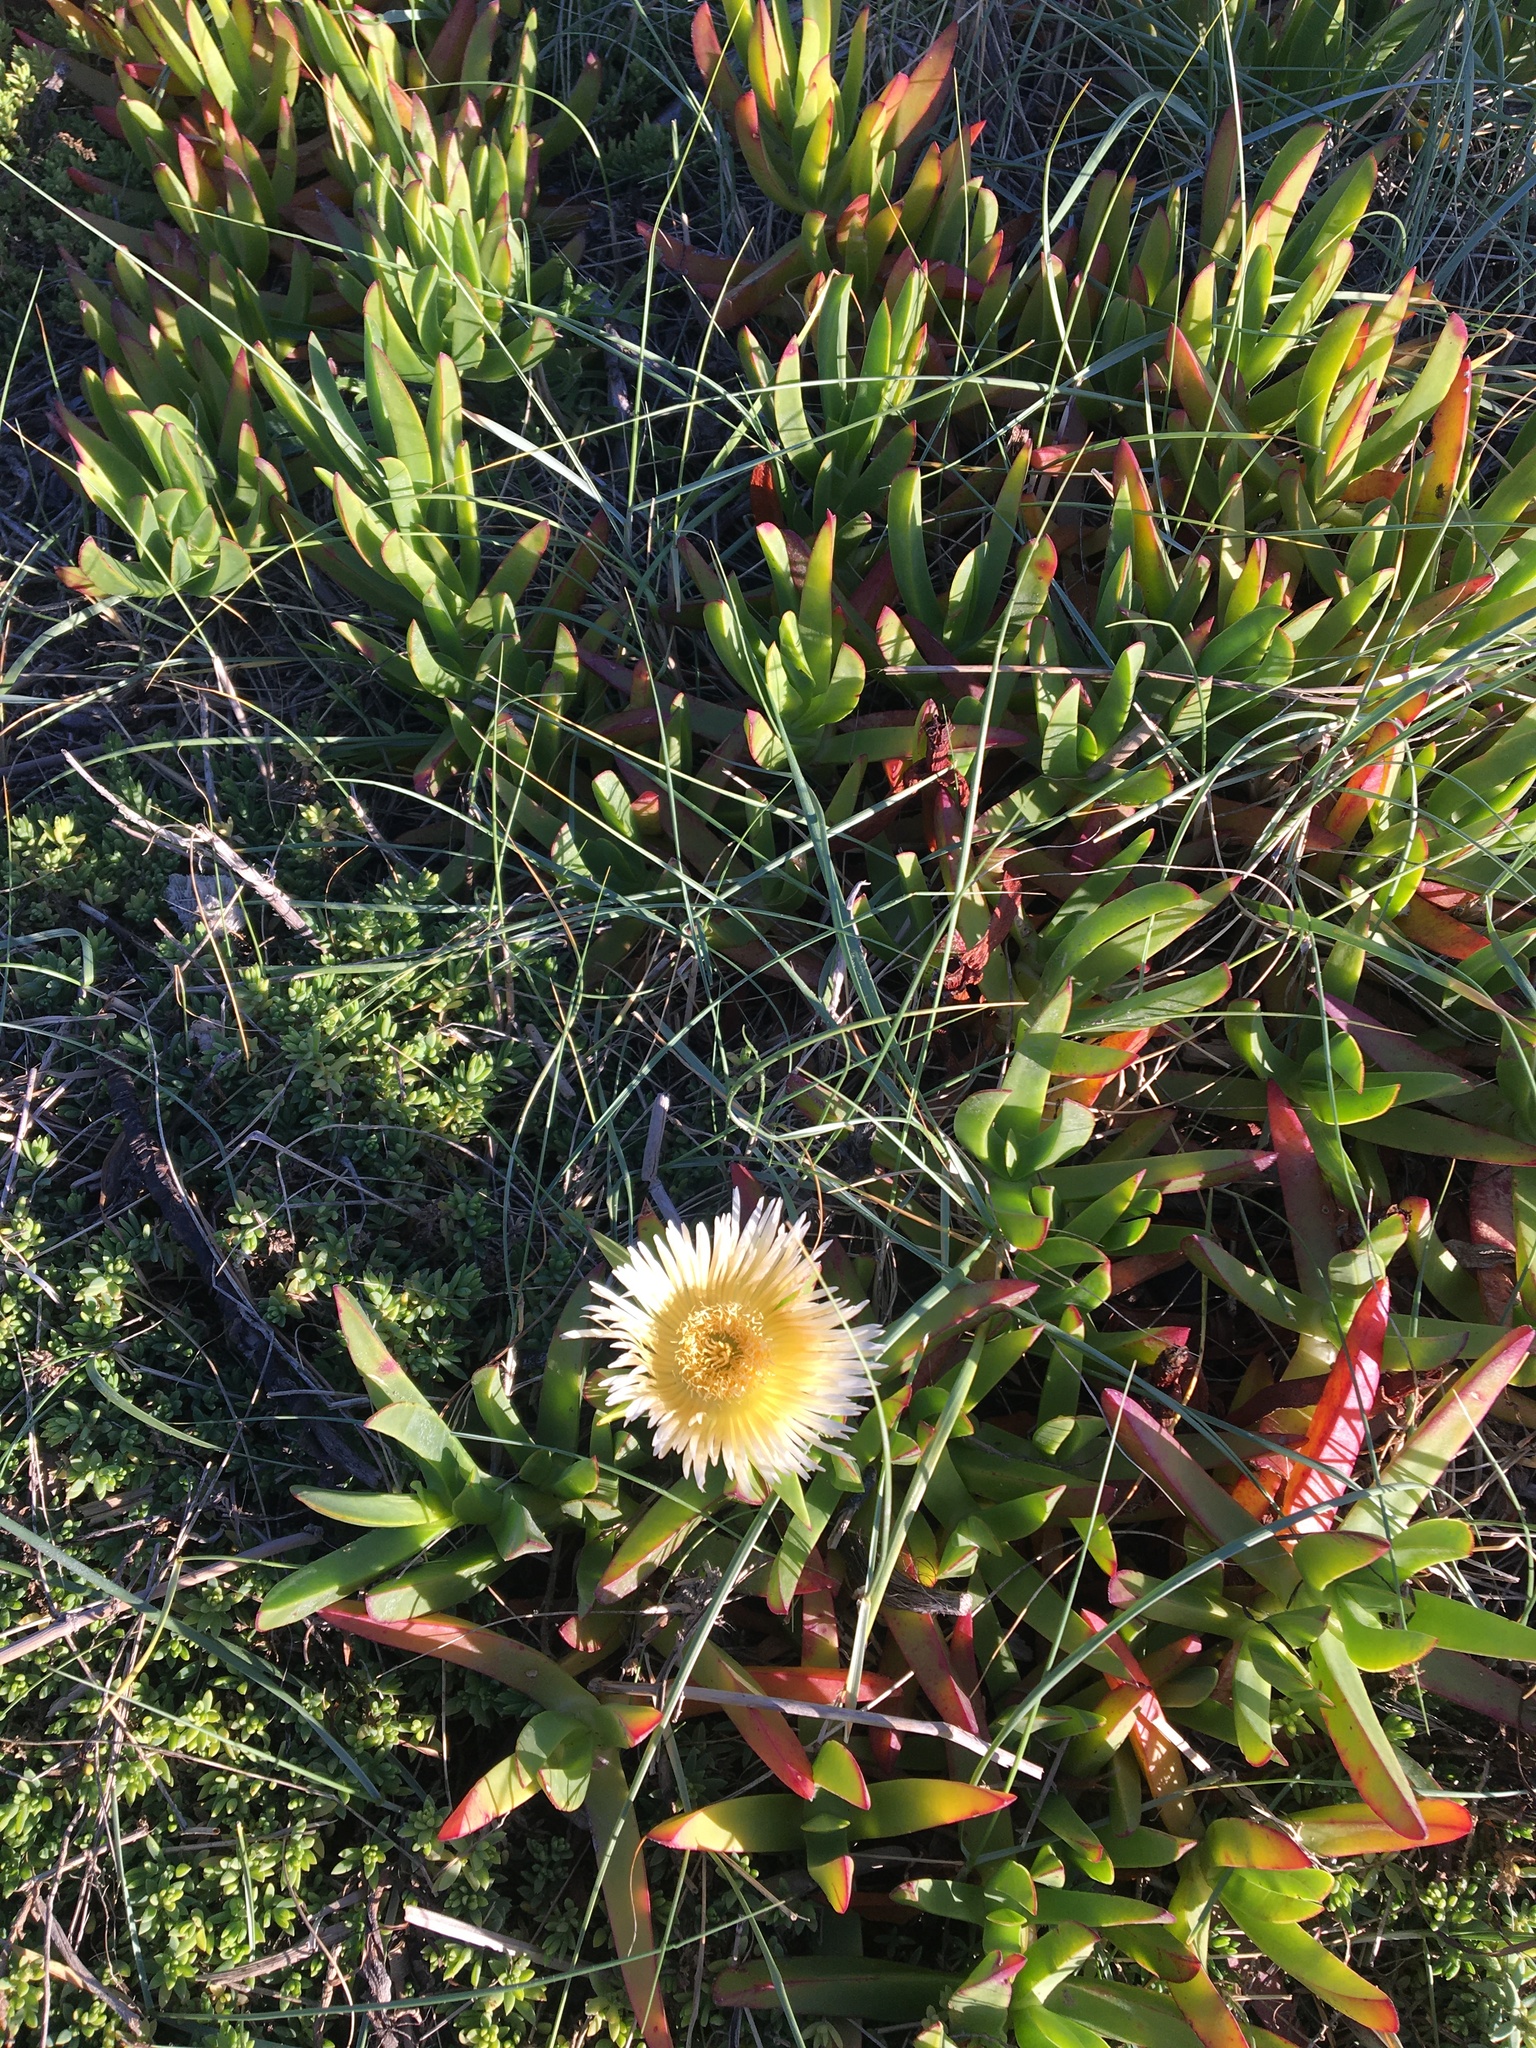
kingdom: Plantae
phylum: Tracheophyta
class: Magnoliopsida
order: Caryophyllales
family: Aizoaceae
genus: Carpobrotus
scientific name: Carpobrotus edulis
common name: Hottentot-fig
